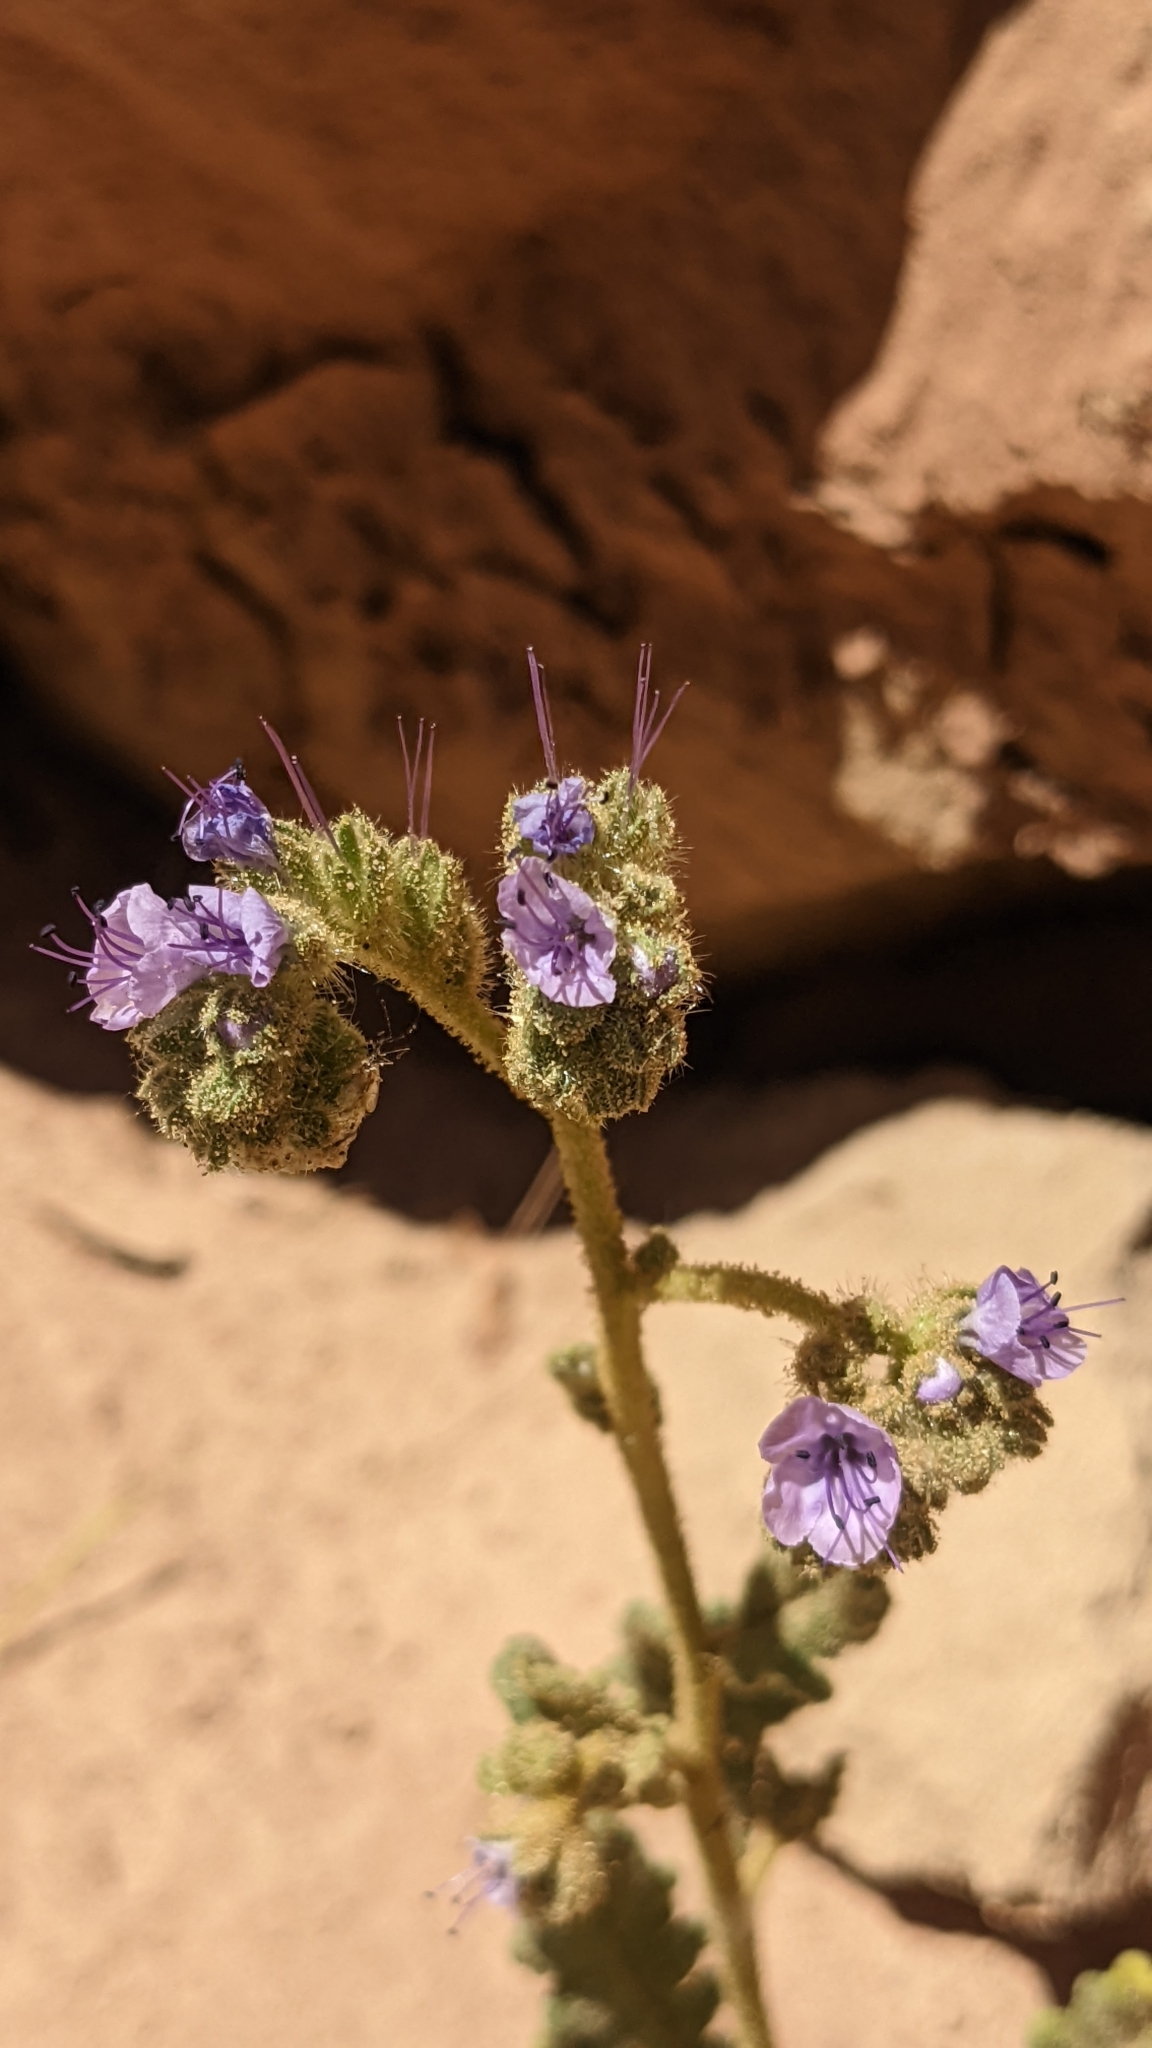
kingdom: Plantae
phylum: Tracheophyta
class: Magnoliopsida
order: Boraginales
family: Hydrophyllaceae
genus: Phacelia
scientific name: Phacelia integrifolia
